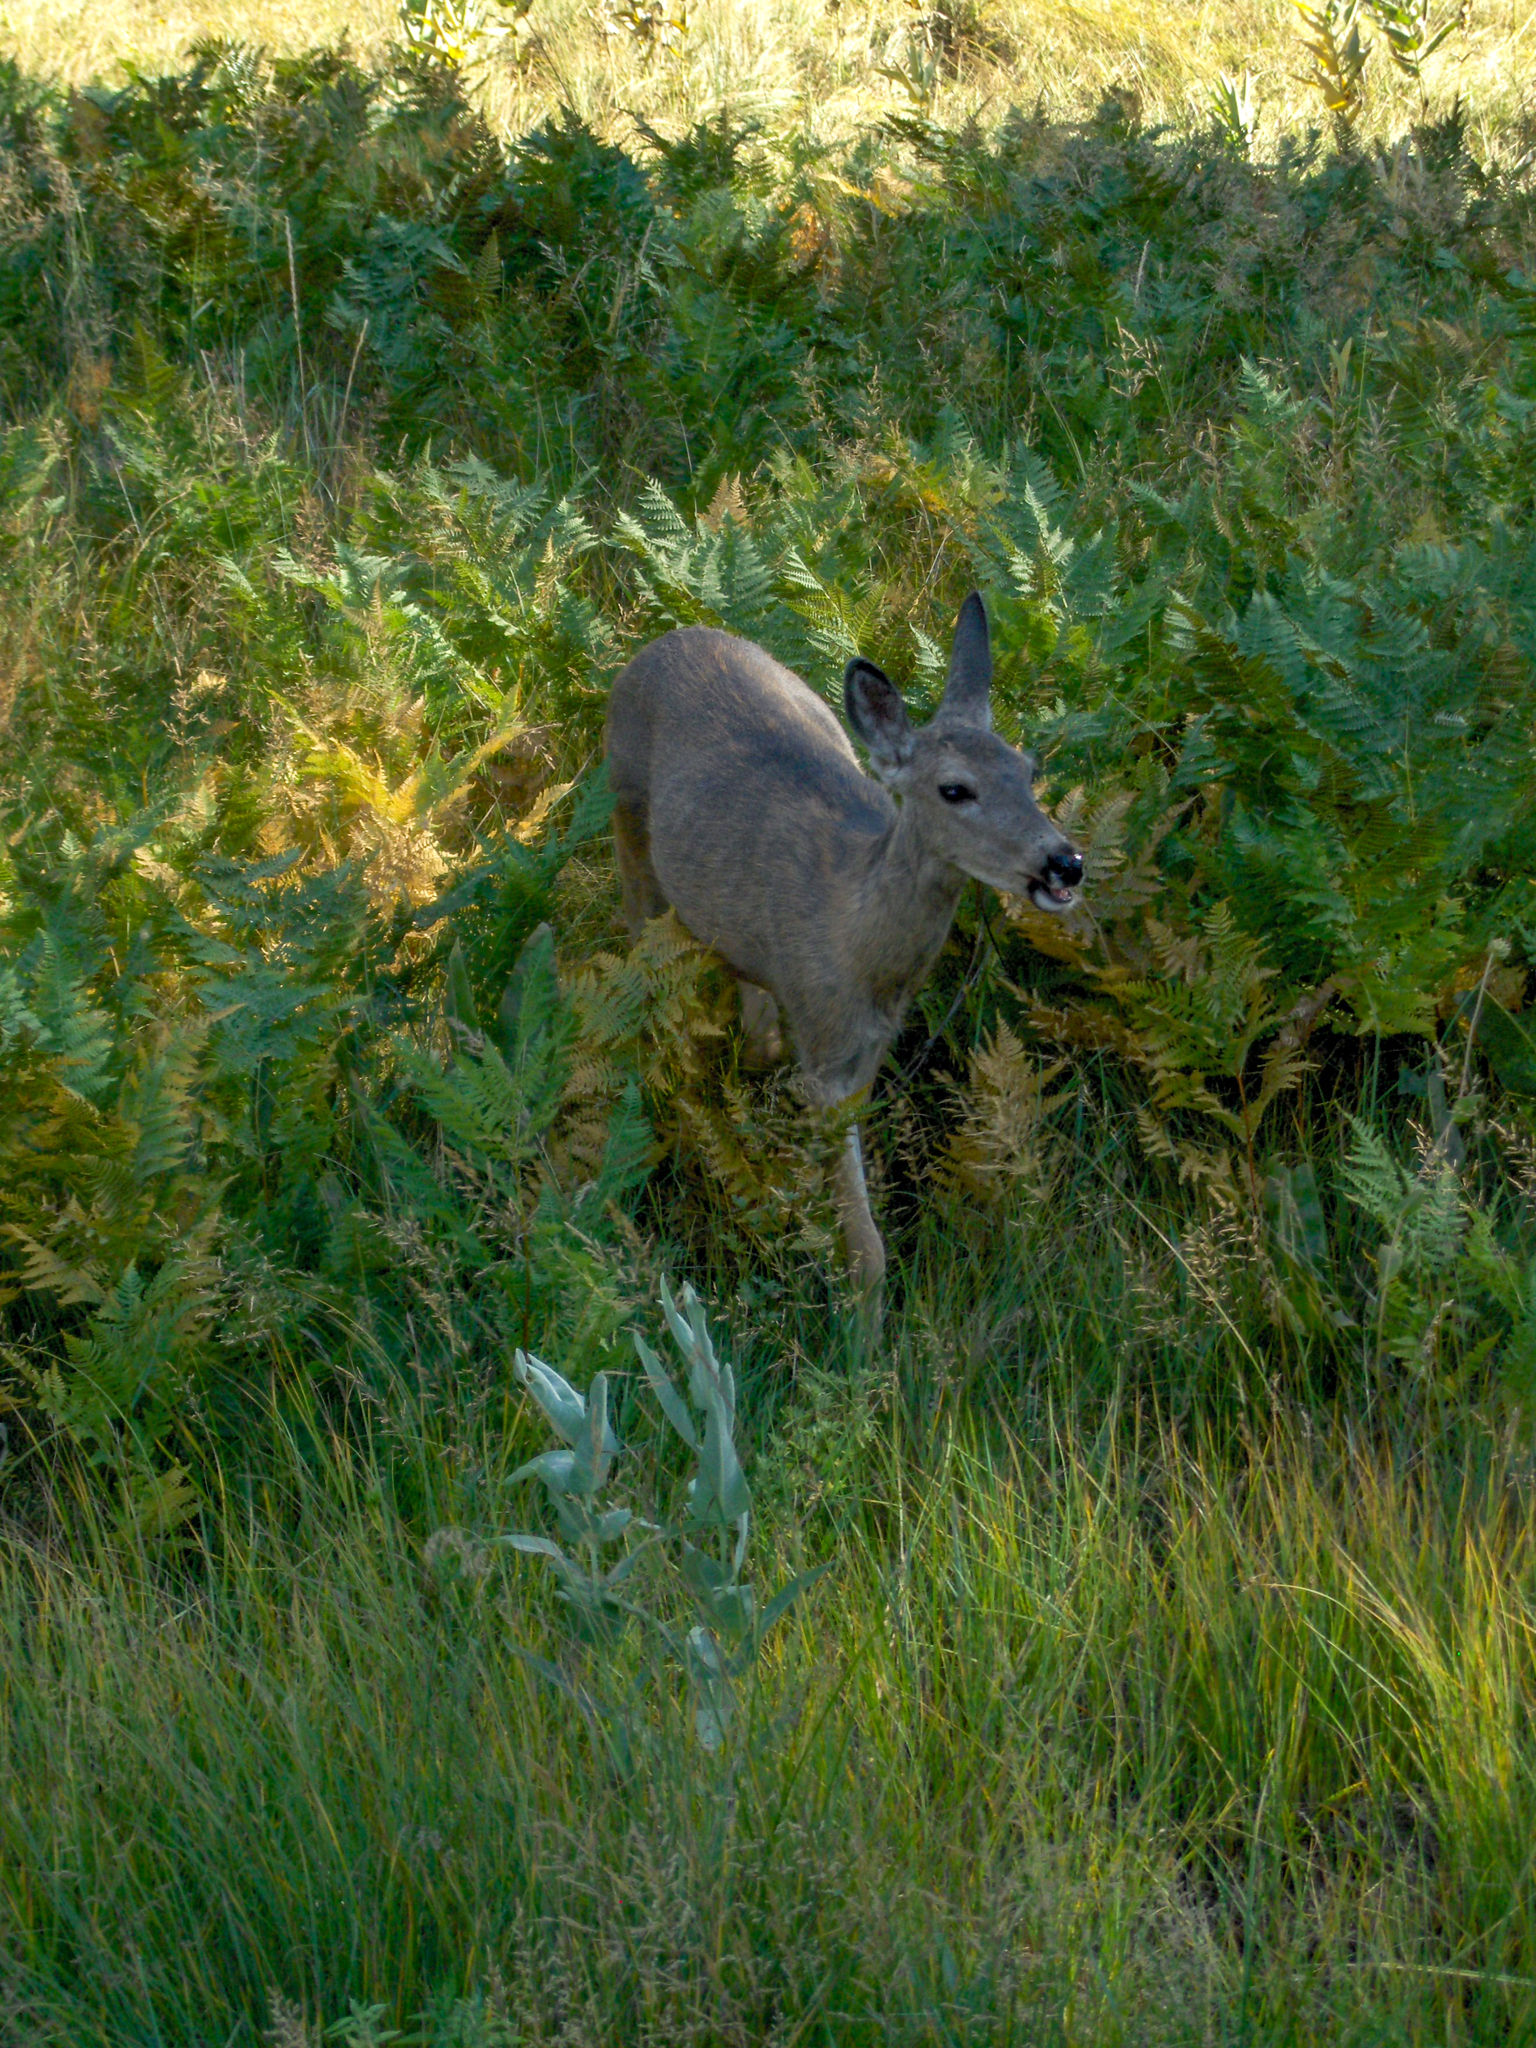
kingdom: Animalia
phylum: Chordata
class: Mammalia
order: Artiodactyla
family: Cervidae
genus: Odocoileus
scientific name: Odocoileus hemionus
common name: Mule deer
